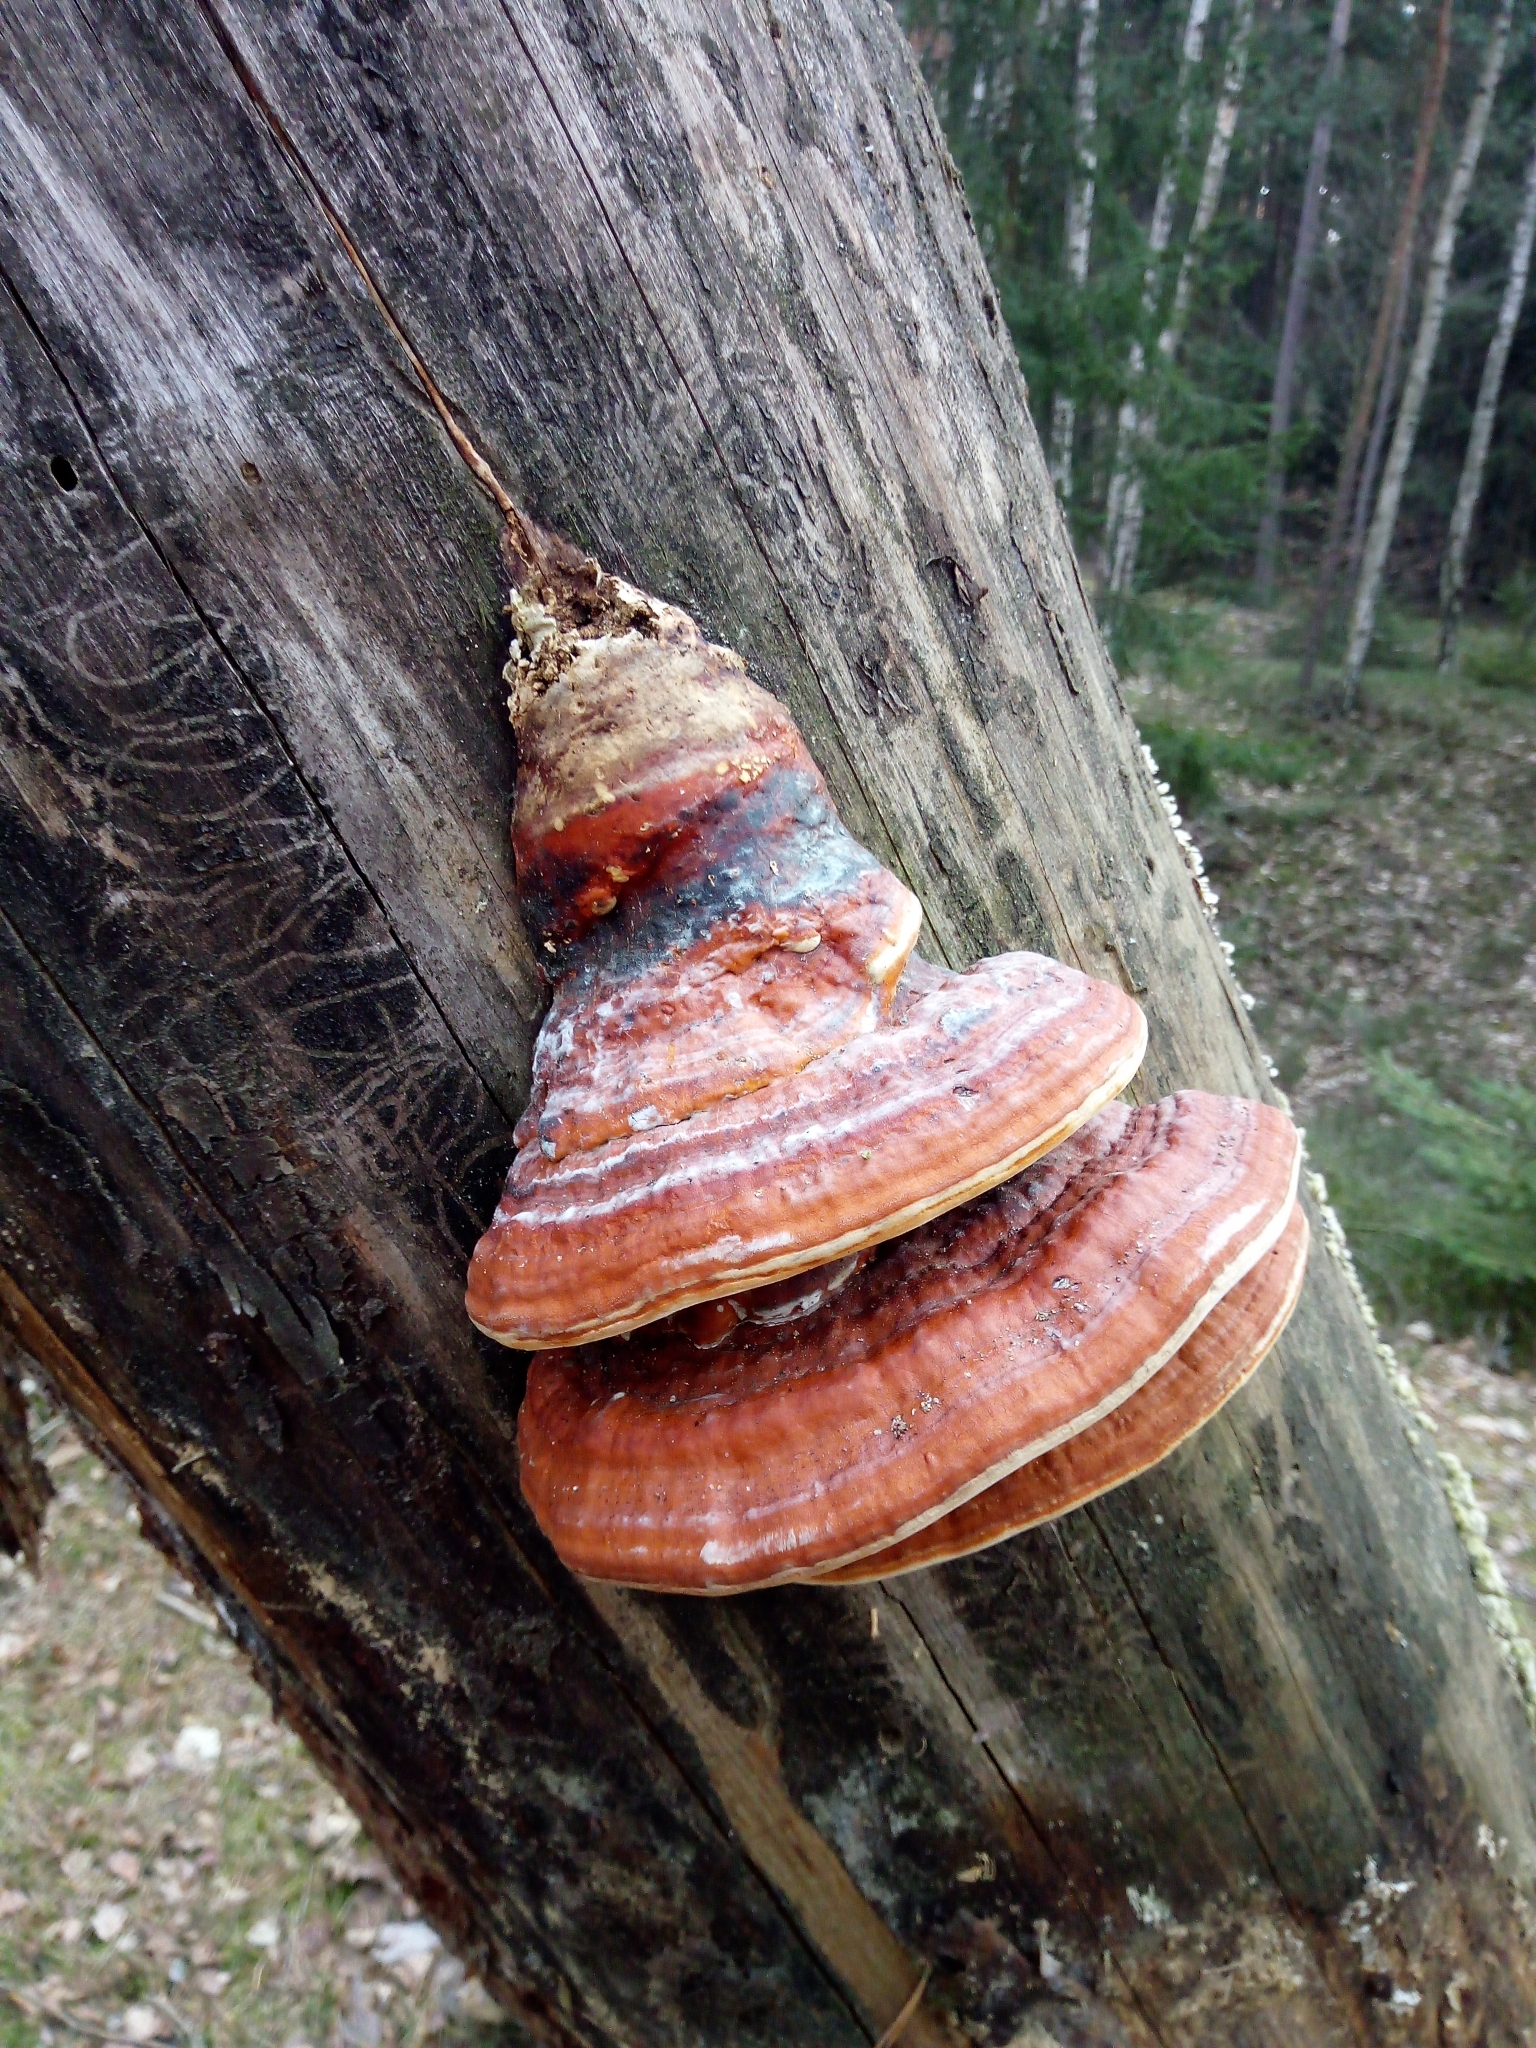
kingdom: Fungi
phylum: Basidiomycota
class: Agaricomycetes
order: Polyporales
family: Fomitopsidaceae
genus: Fomitopsis
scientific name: Fomitopsis pinicola
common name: Red-belted bracket
